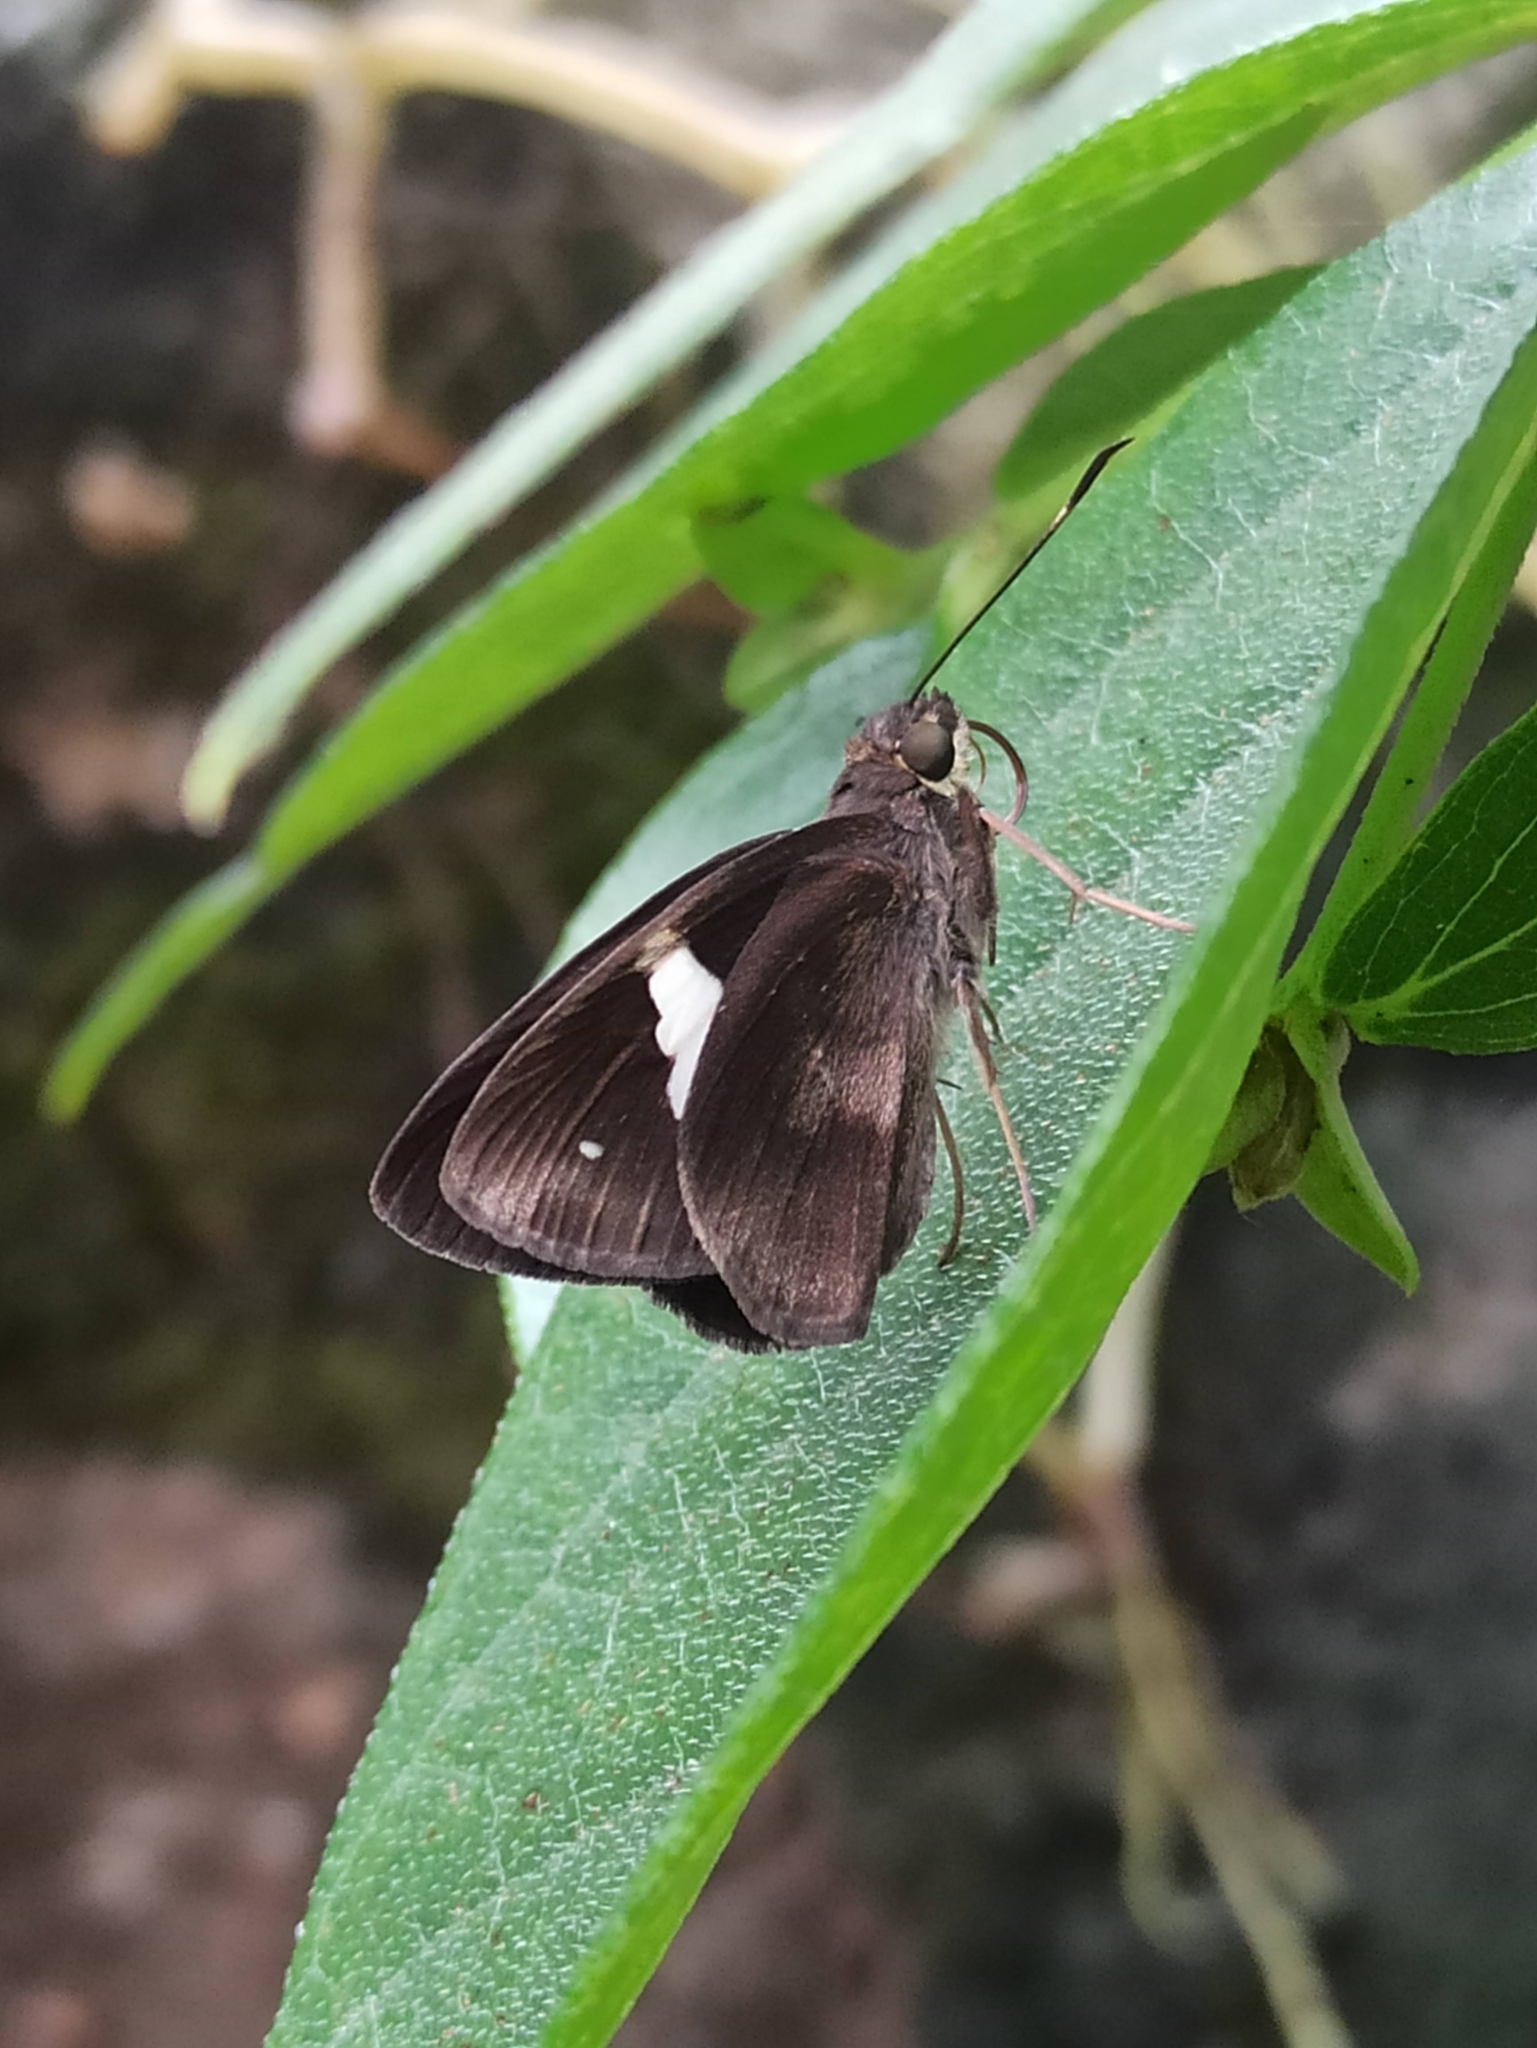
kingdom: Animalia
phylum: Arthropoda
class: Insecta
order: Lepidoptera
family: Hesperiidae
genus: Notocrypta
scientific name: Notocrypta paralysos
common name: Common banded demon
